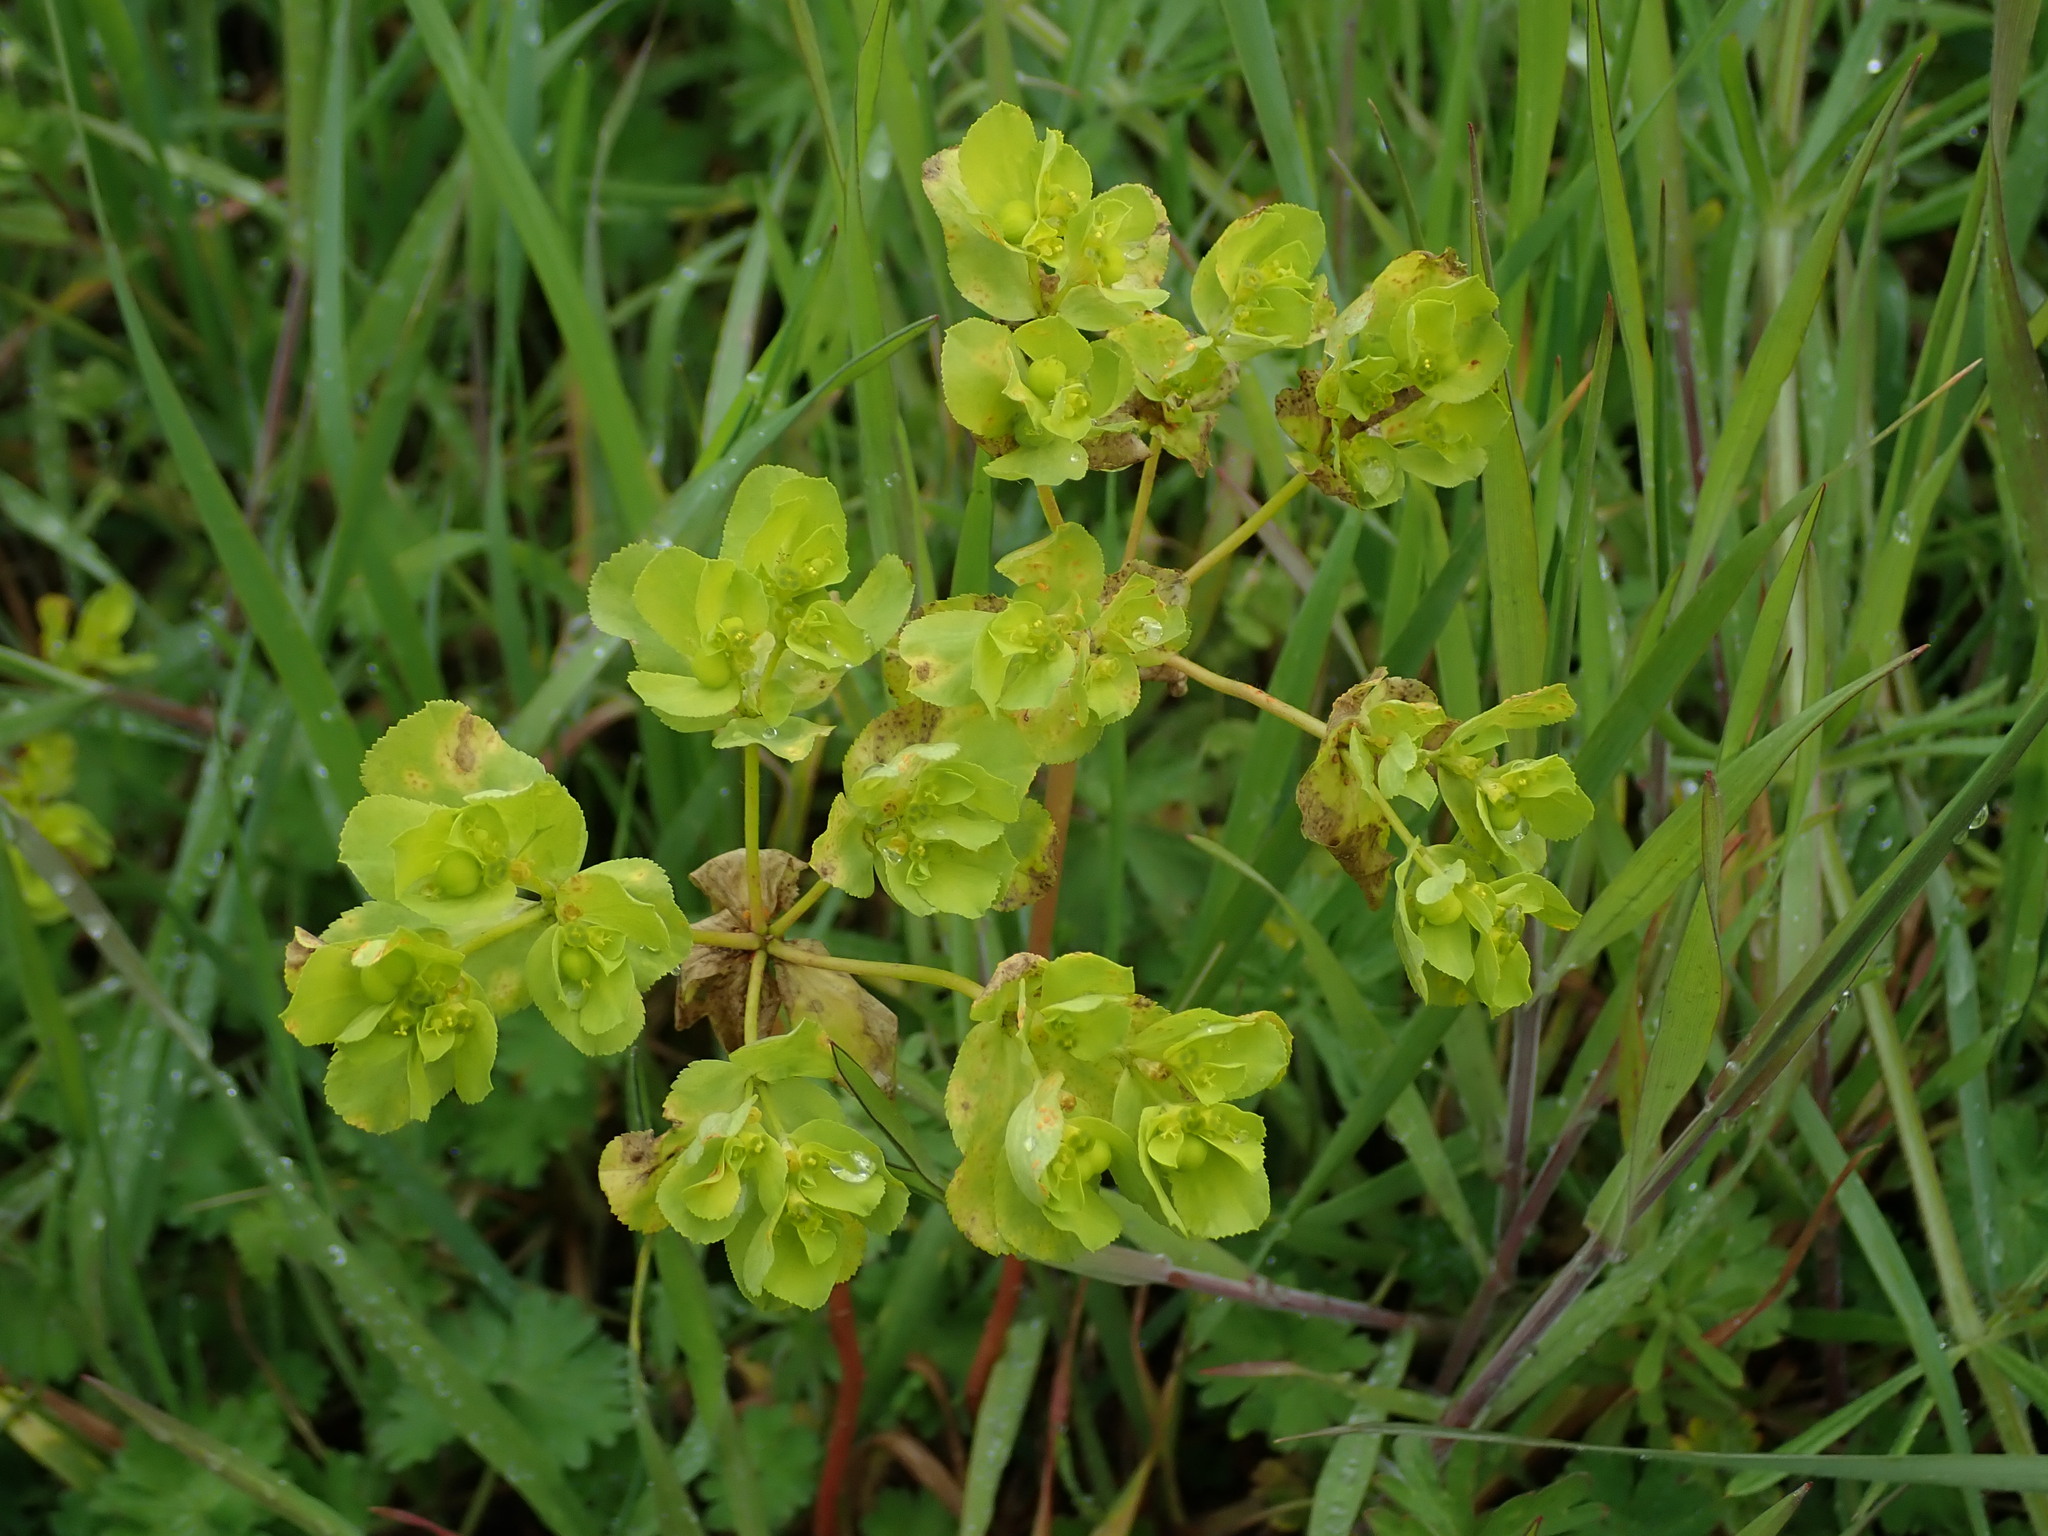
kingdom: Plantae
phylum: Tracheophyta
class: Magnoliopsida
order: Malpighiales
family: Euphorbiaceae
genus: Euphorbia
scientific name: Euphorbia helioscopia
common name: Sun spurge
